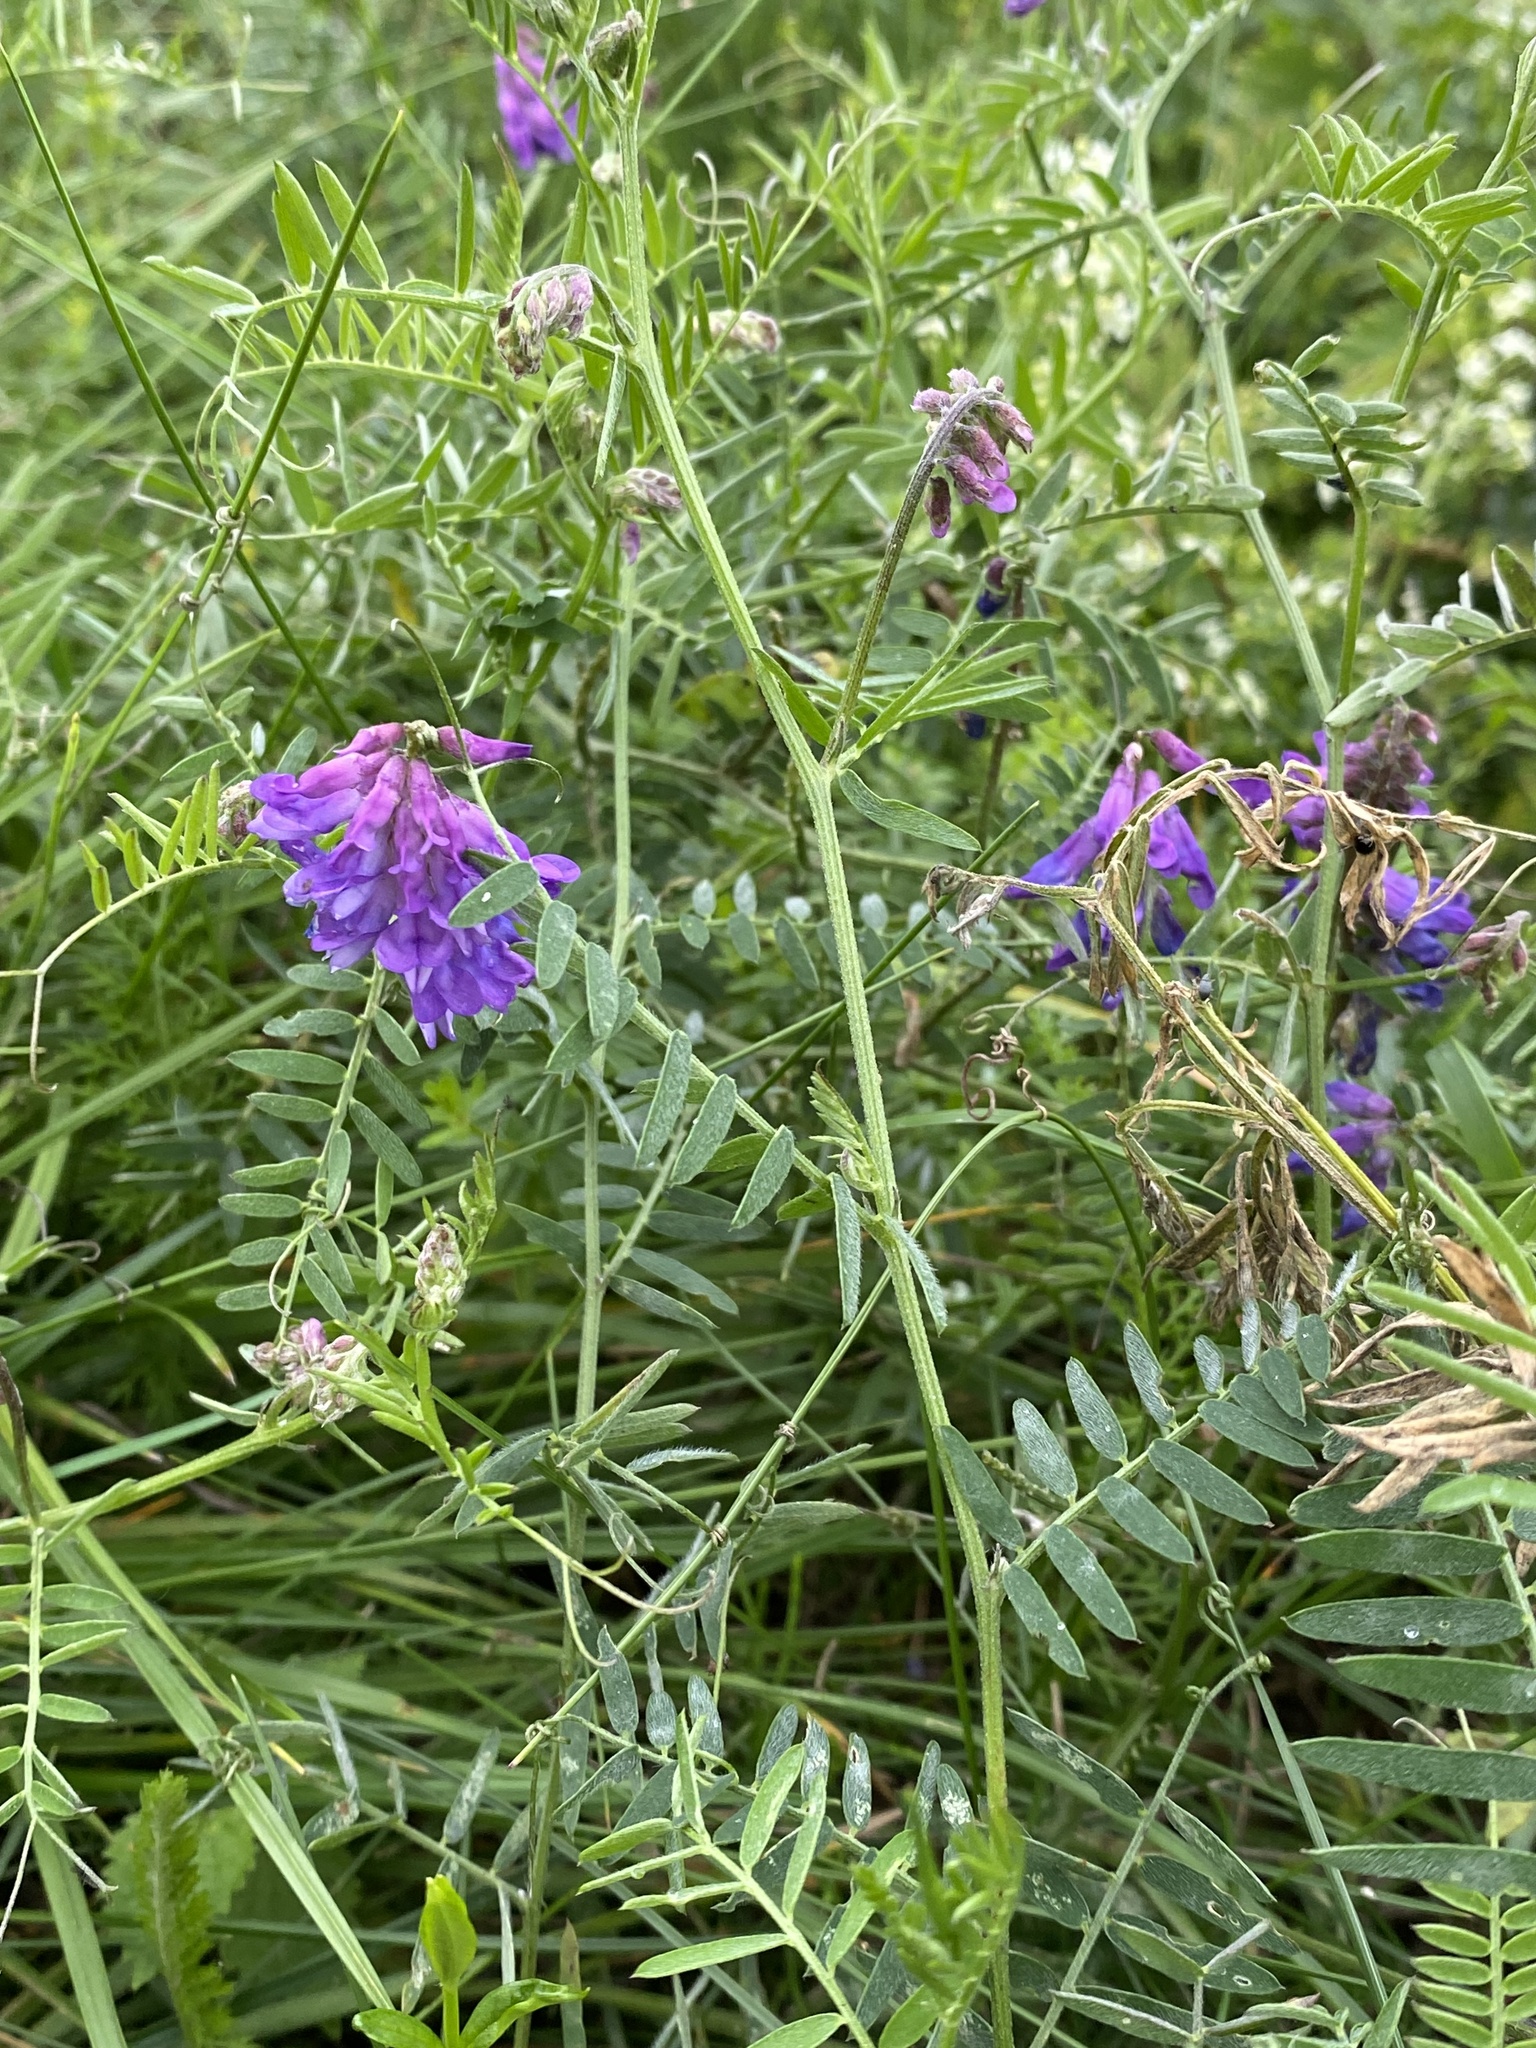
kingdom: Plantae
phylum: Tracheophyta
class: Magnoliopsida
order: Fabales
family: Fabaceae
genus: Vicia
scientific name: Vicia cracca
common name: Bird vetch
